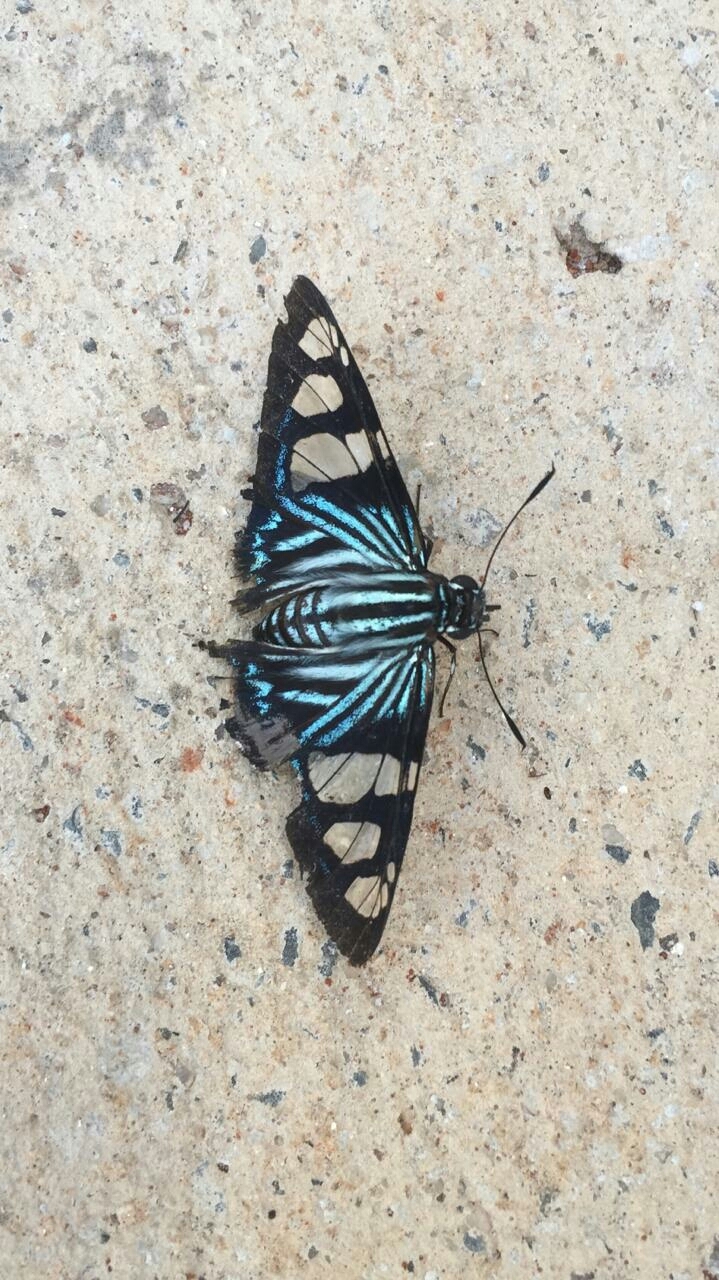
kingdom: Animalia
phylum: Arthropoda
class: Insecta
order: Lepidoptera
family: Hesperiidae
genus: Phocides
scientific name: Phocides pigmalion
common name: Mangrove skipper
